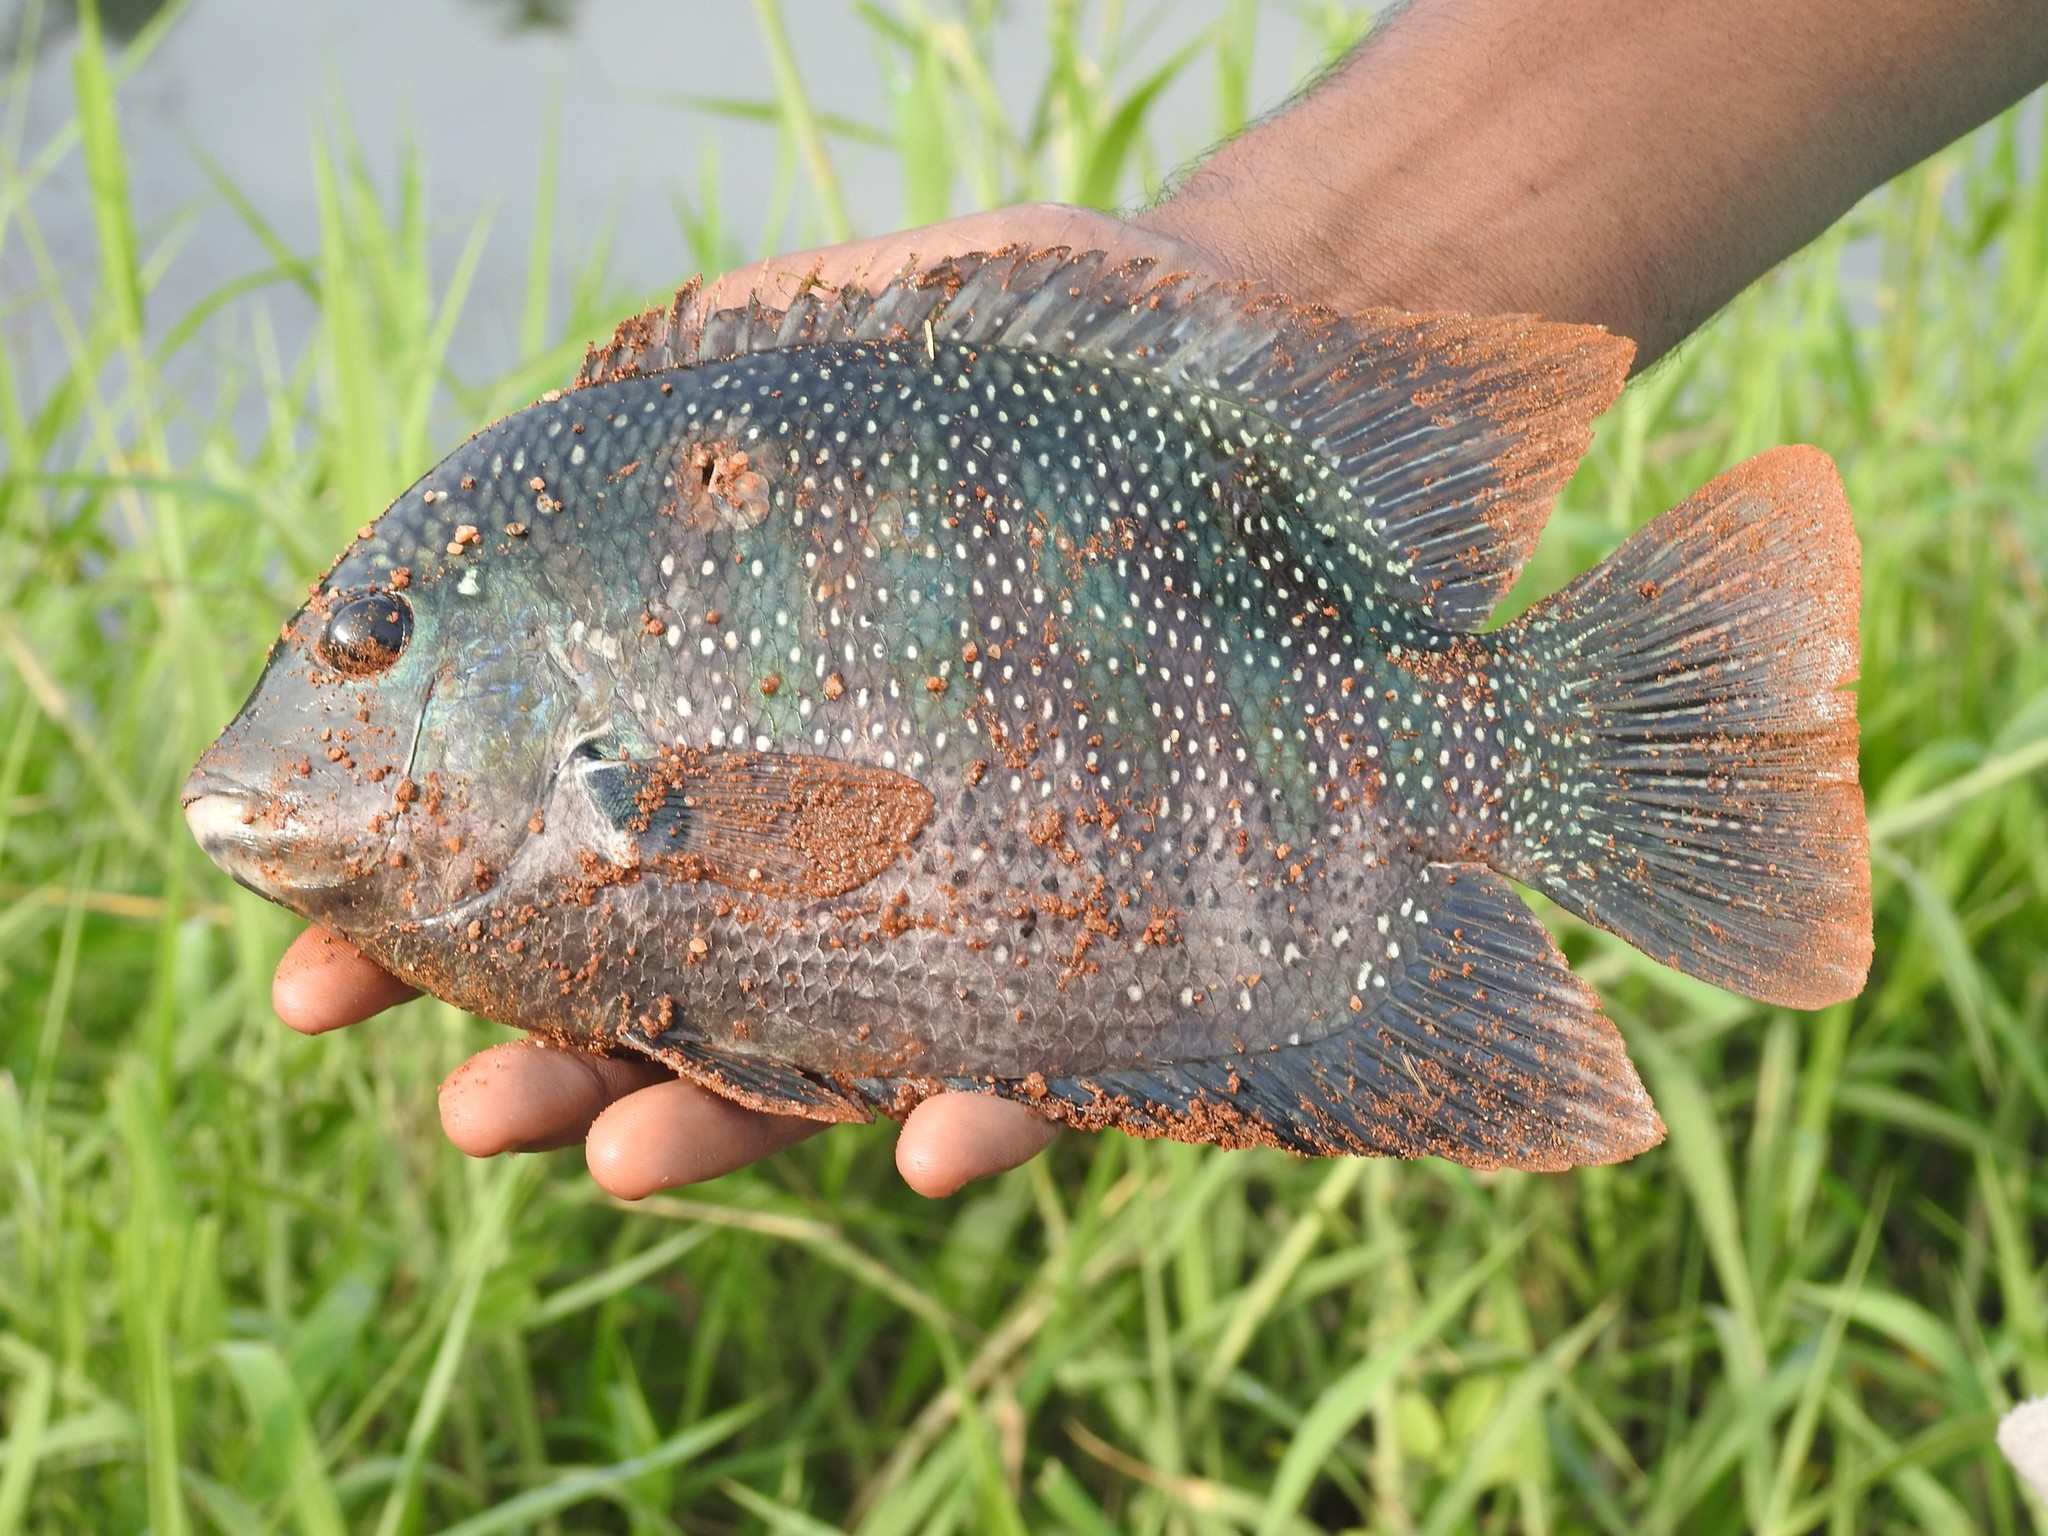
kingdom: Animalia
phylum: Chordata
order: Perciformes
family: Cichlidae
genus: Etroplus
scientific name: Etroplus suratensis
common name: Green chromide
